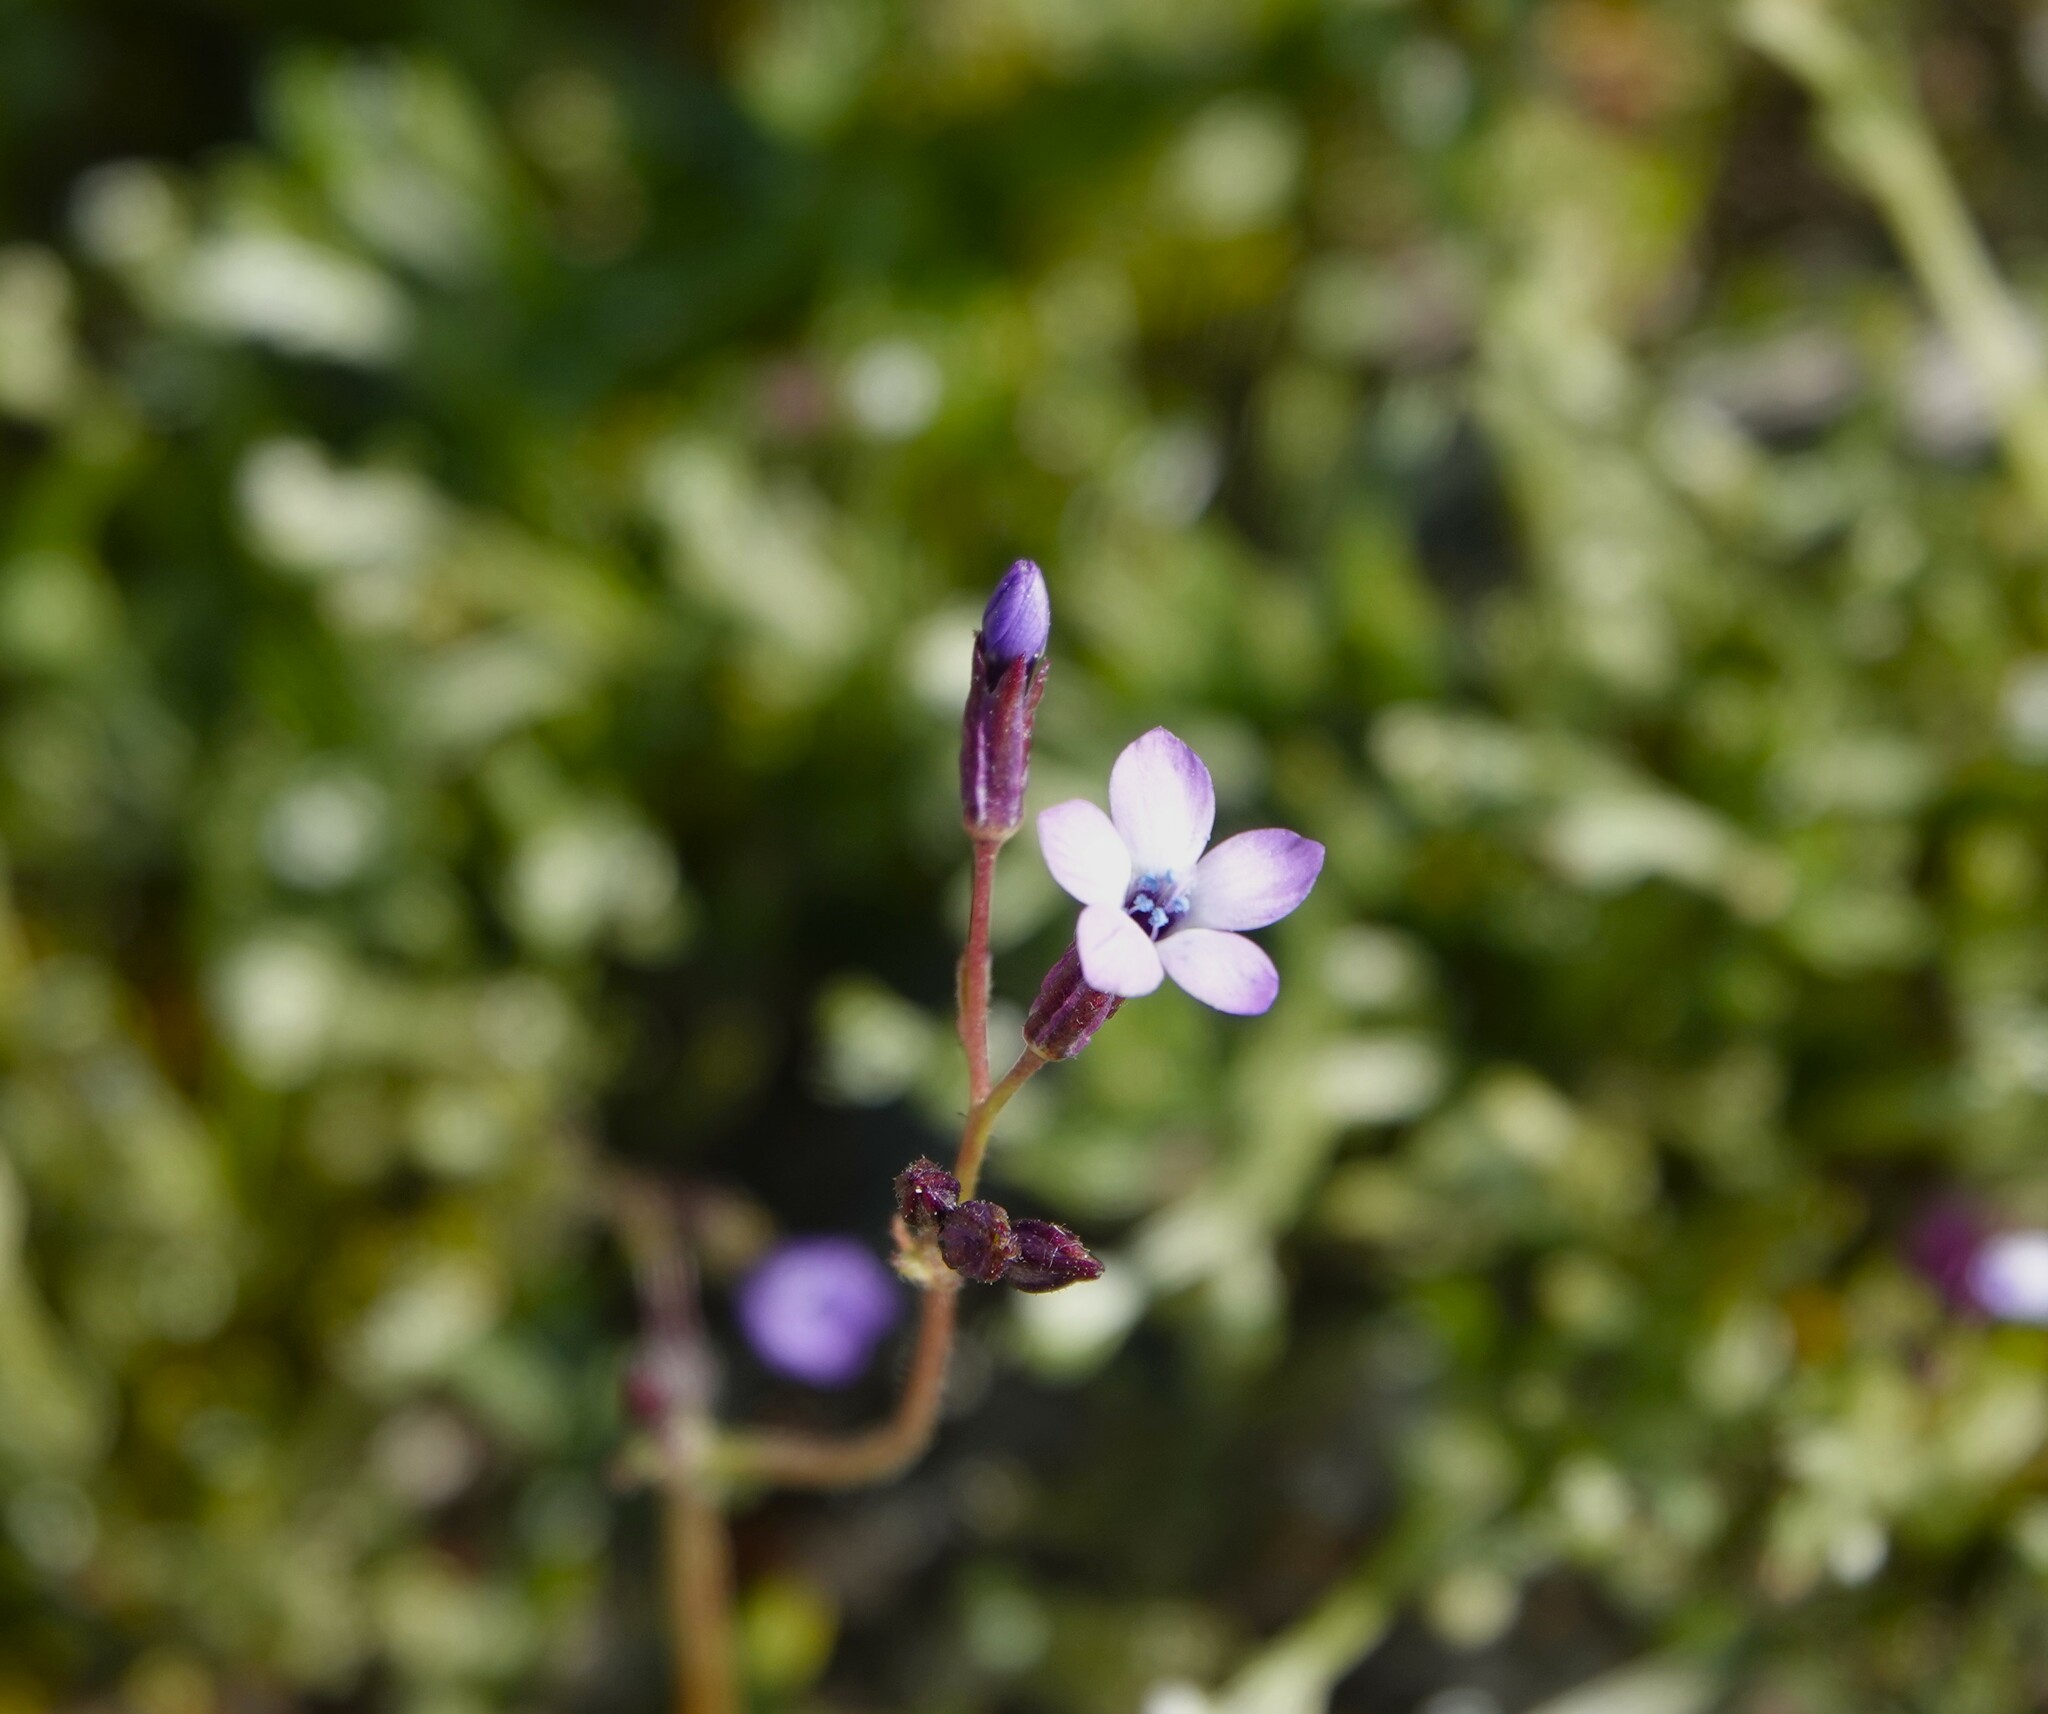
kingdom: Plantae
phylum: Tracheophyta
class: Magnoliopsida
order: Ericales
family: Polemoniaceae
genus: Gilia
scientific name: Gilia malior
